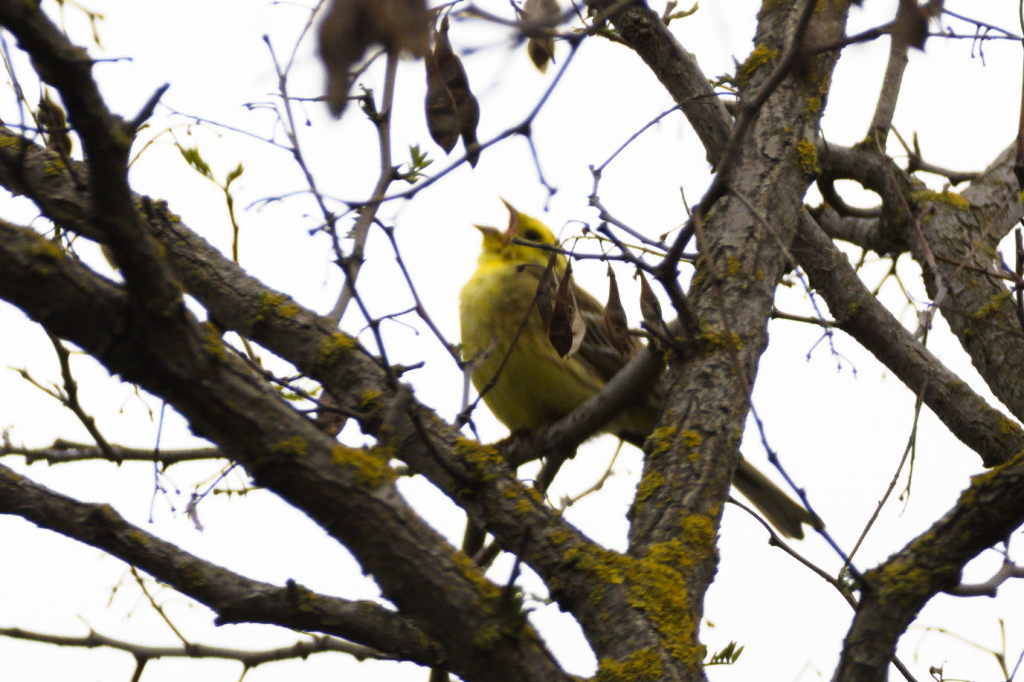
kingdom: Animalia
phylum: Chordata
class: Aves
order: Passeriformes
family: Emberizidae
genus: Emberiza
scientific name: Emberiza citrinella
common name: Yellowhammer
